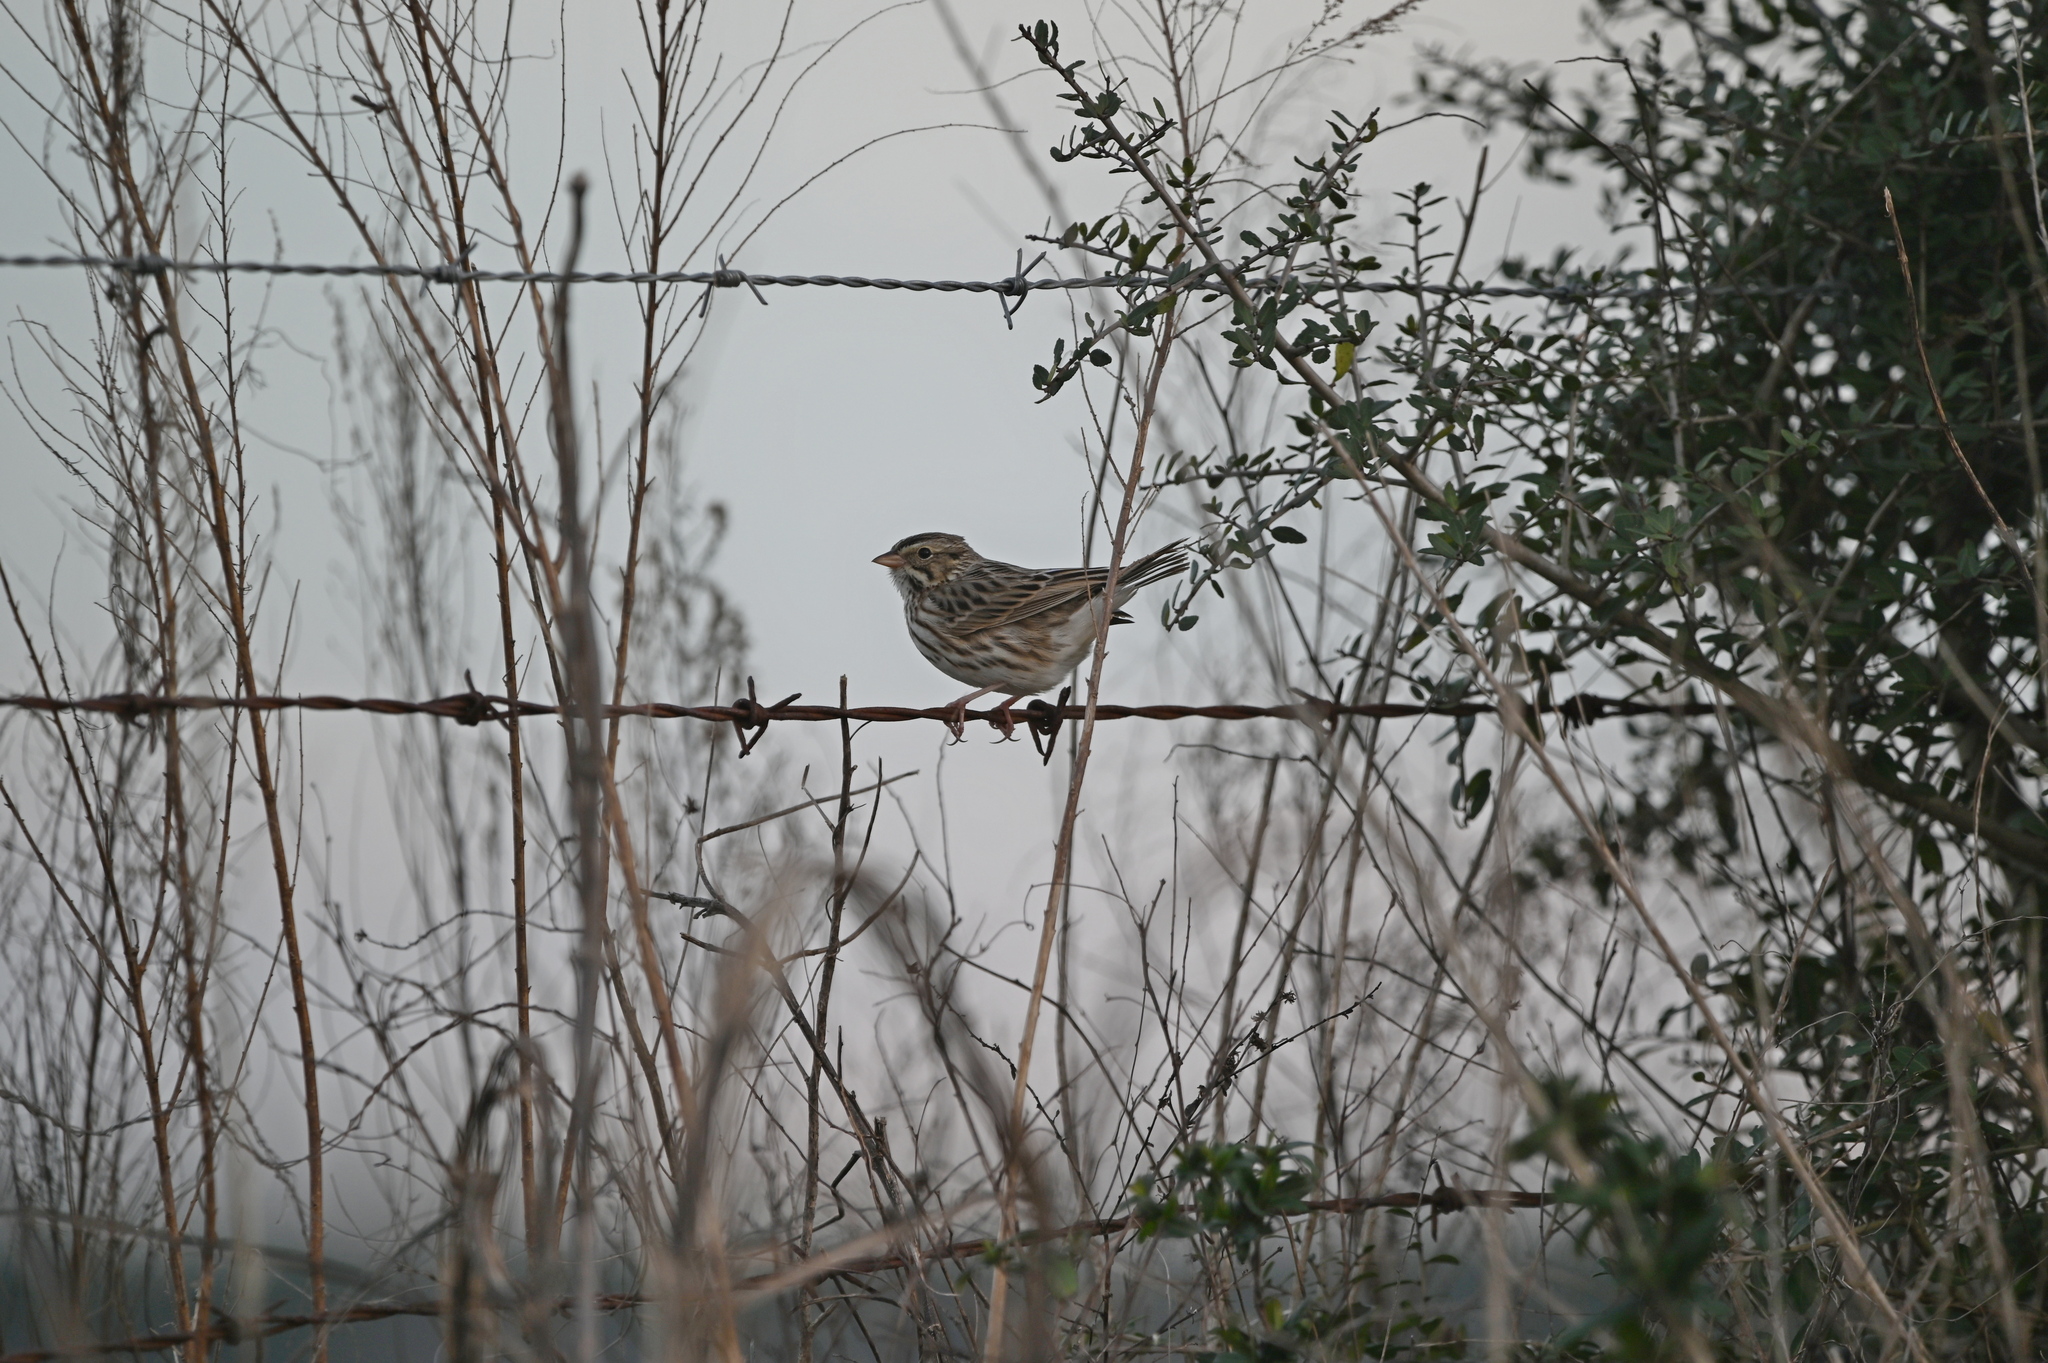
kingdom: Animalia
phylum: Chordata
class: Aves
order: Passeriformes
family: Passerellidae
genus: Passerculus
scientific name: Passerculus sandwichensis
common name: Savannah sparrow
